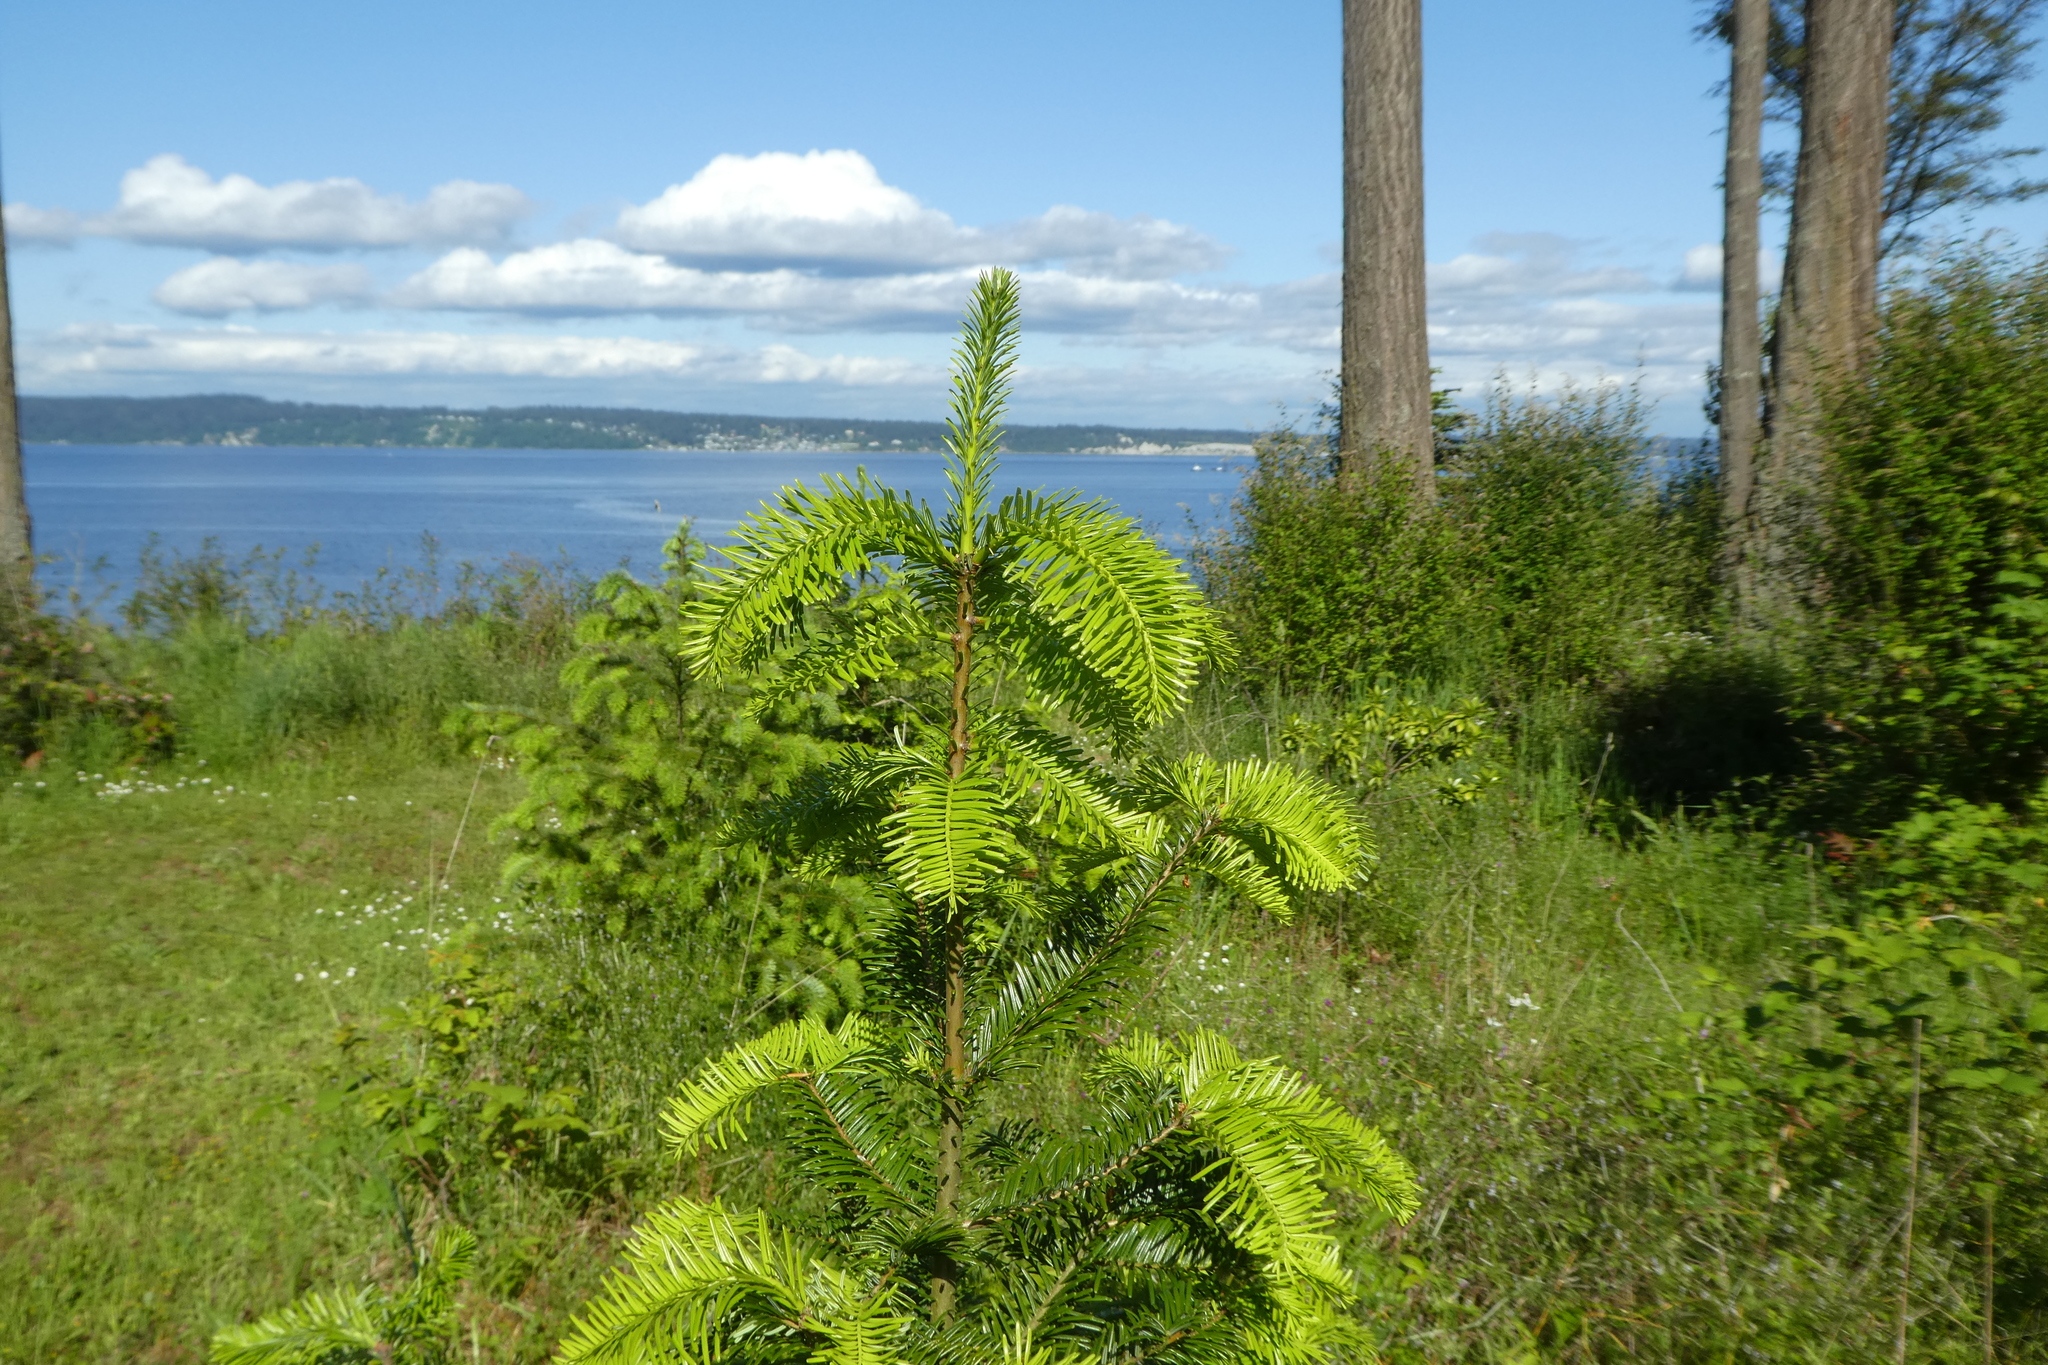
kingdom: Plantae
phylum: Tracheophyta
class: Pinopsida
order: Pinales
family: Pinaceae
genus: Abies
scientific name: Abies grandis
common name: Giant fir
